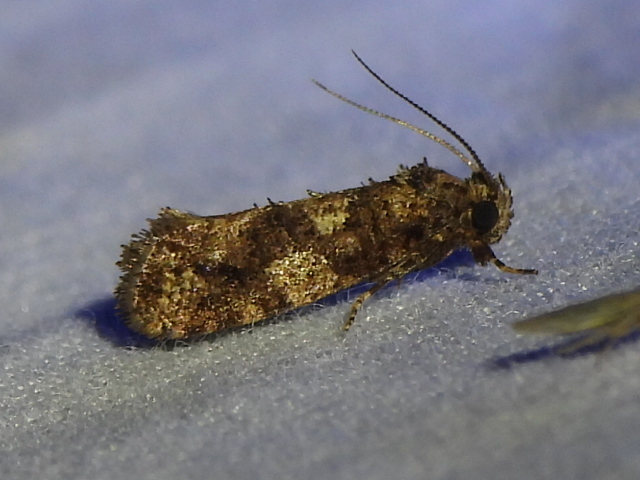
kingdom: Animalia
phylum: Arthropoda
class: Insecta
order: Lepidoptera
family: Tineidae
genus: Acrolophus
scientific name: Acrolophus cressoni
